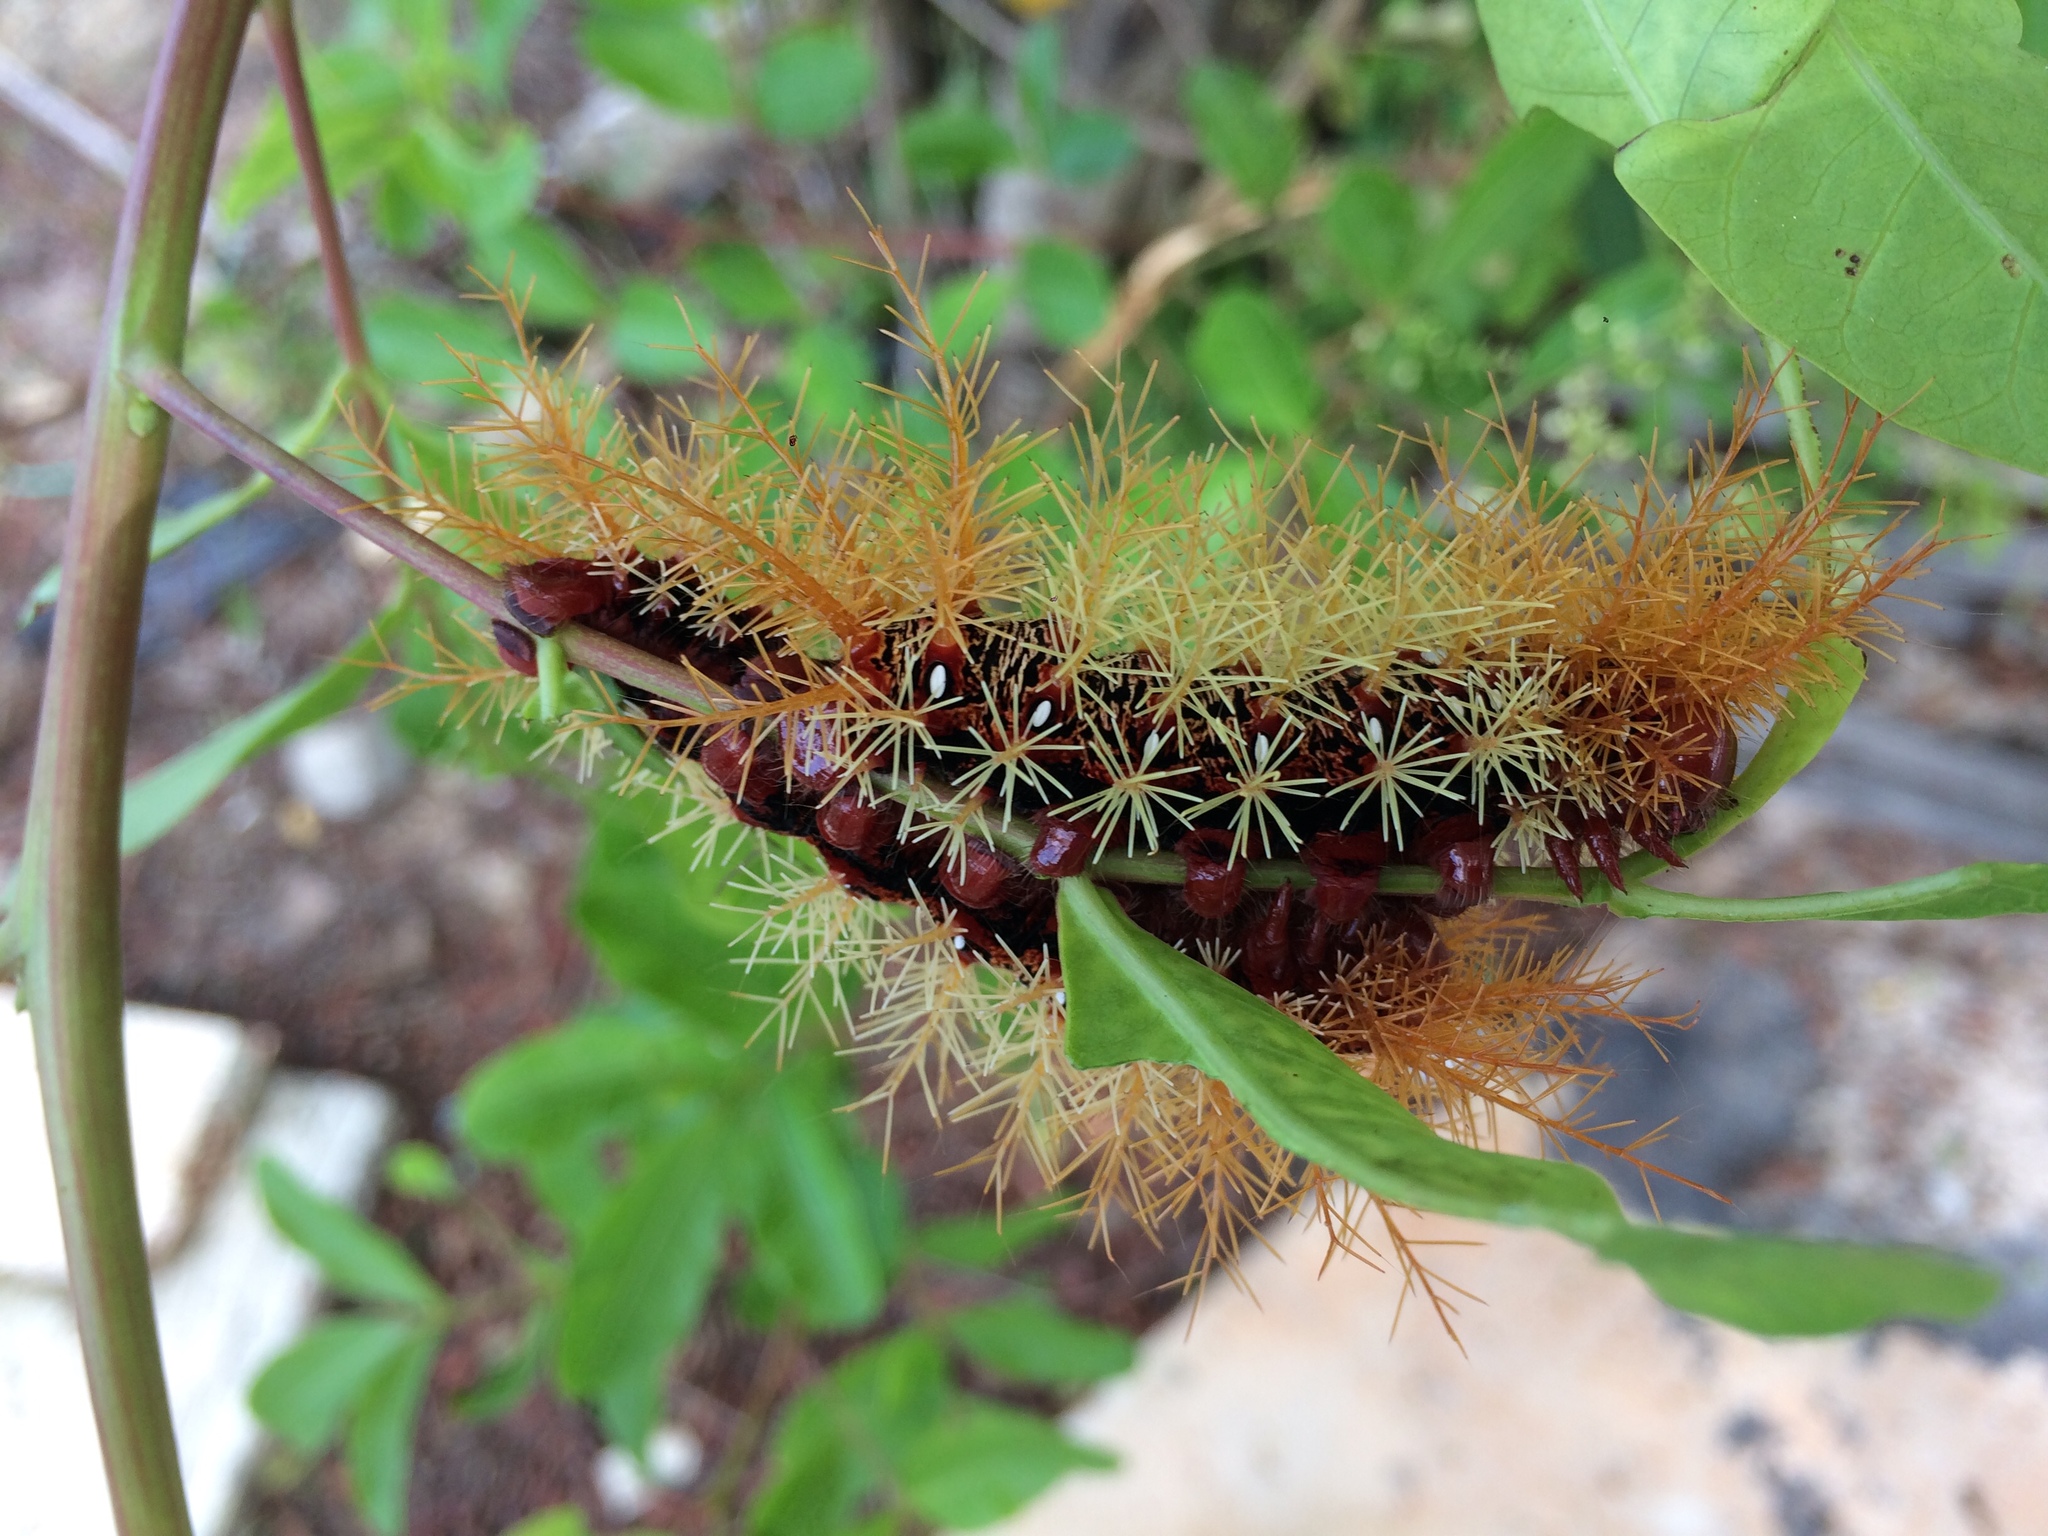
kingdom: Animalia
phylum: Arthropoda
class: Insecta
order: Lepidoptera
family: Saturniidae
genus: Dirphia
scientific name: Dirphia moderata
